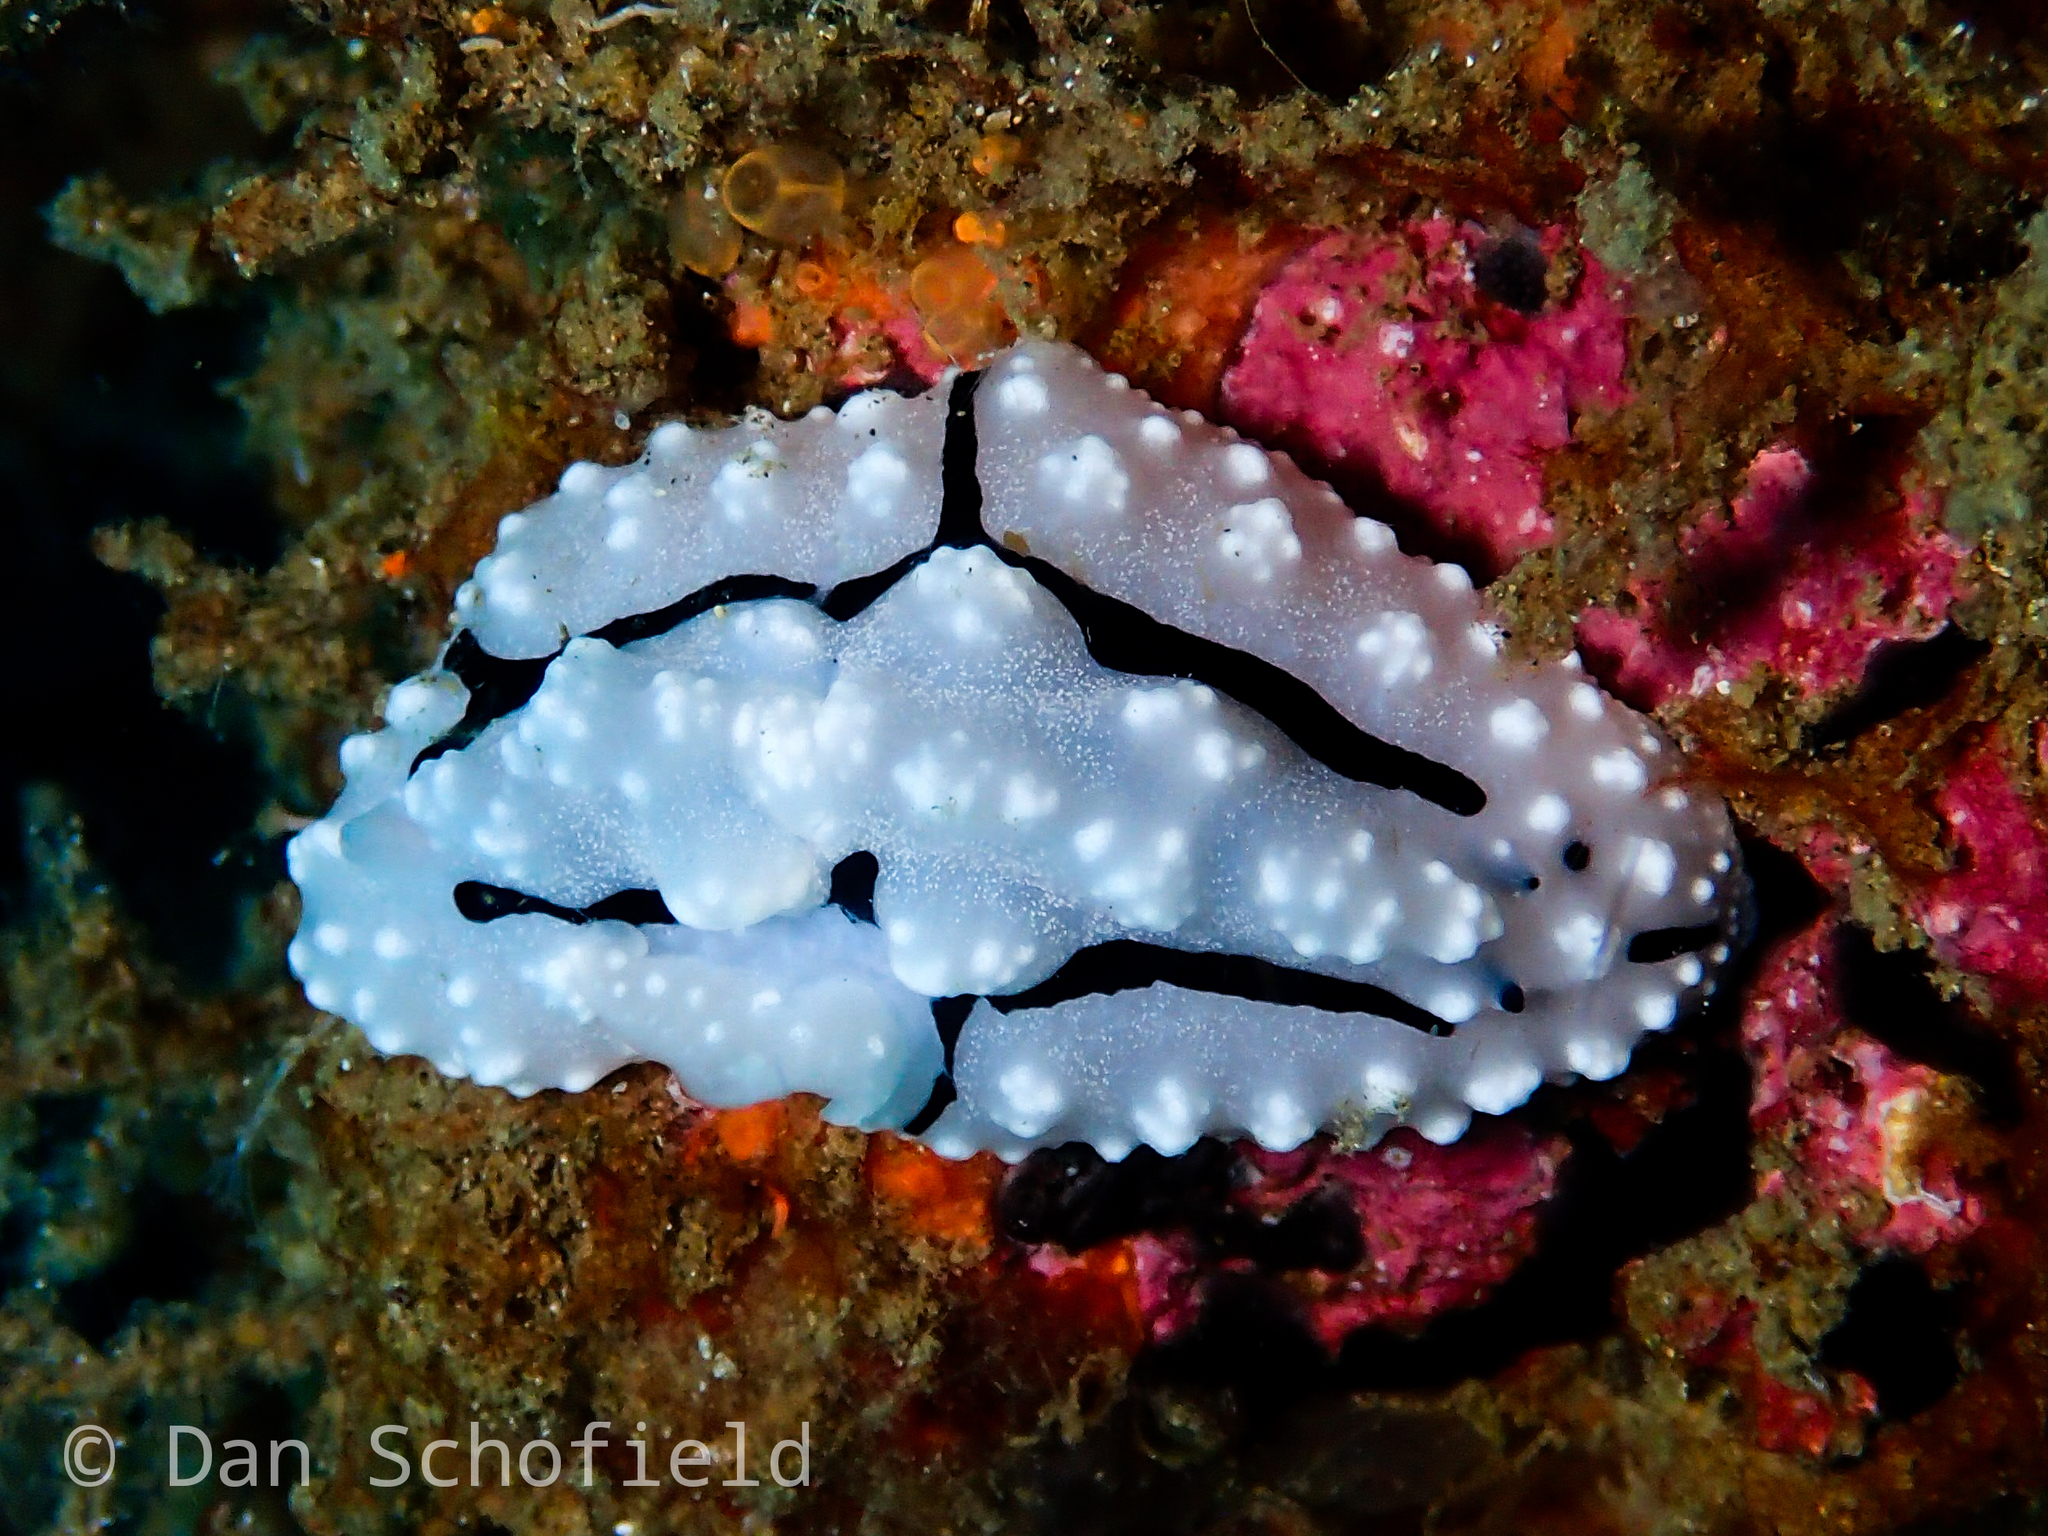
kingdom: Animalia
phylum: Mollusca
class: Gastropoda
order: Nudibranchia
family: Phyllidiidae
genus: Phyllidiopsis
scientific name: Phyllidiopsis krempfi
